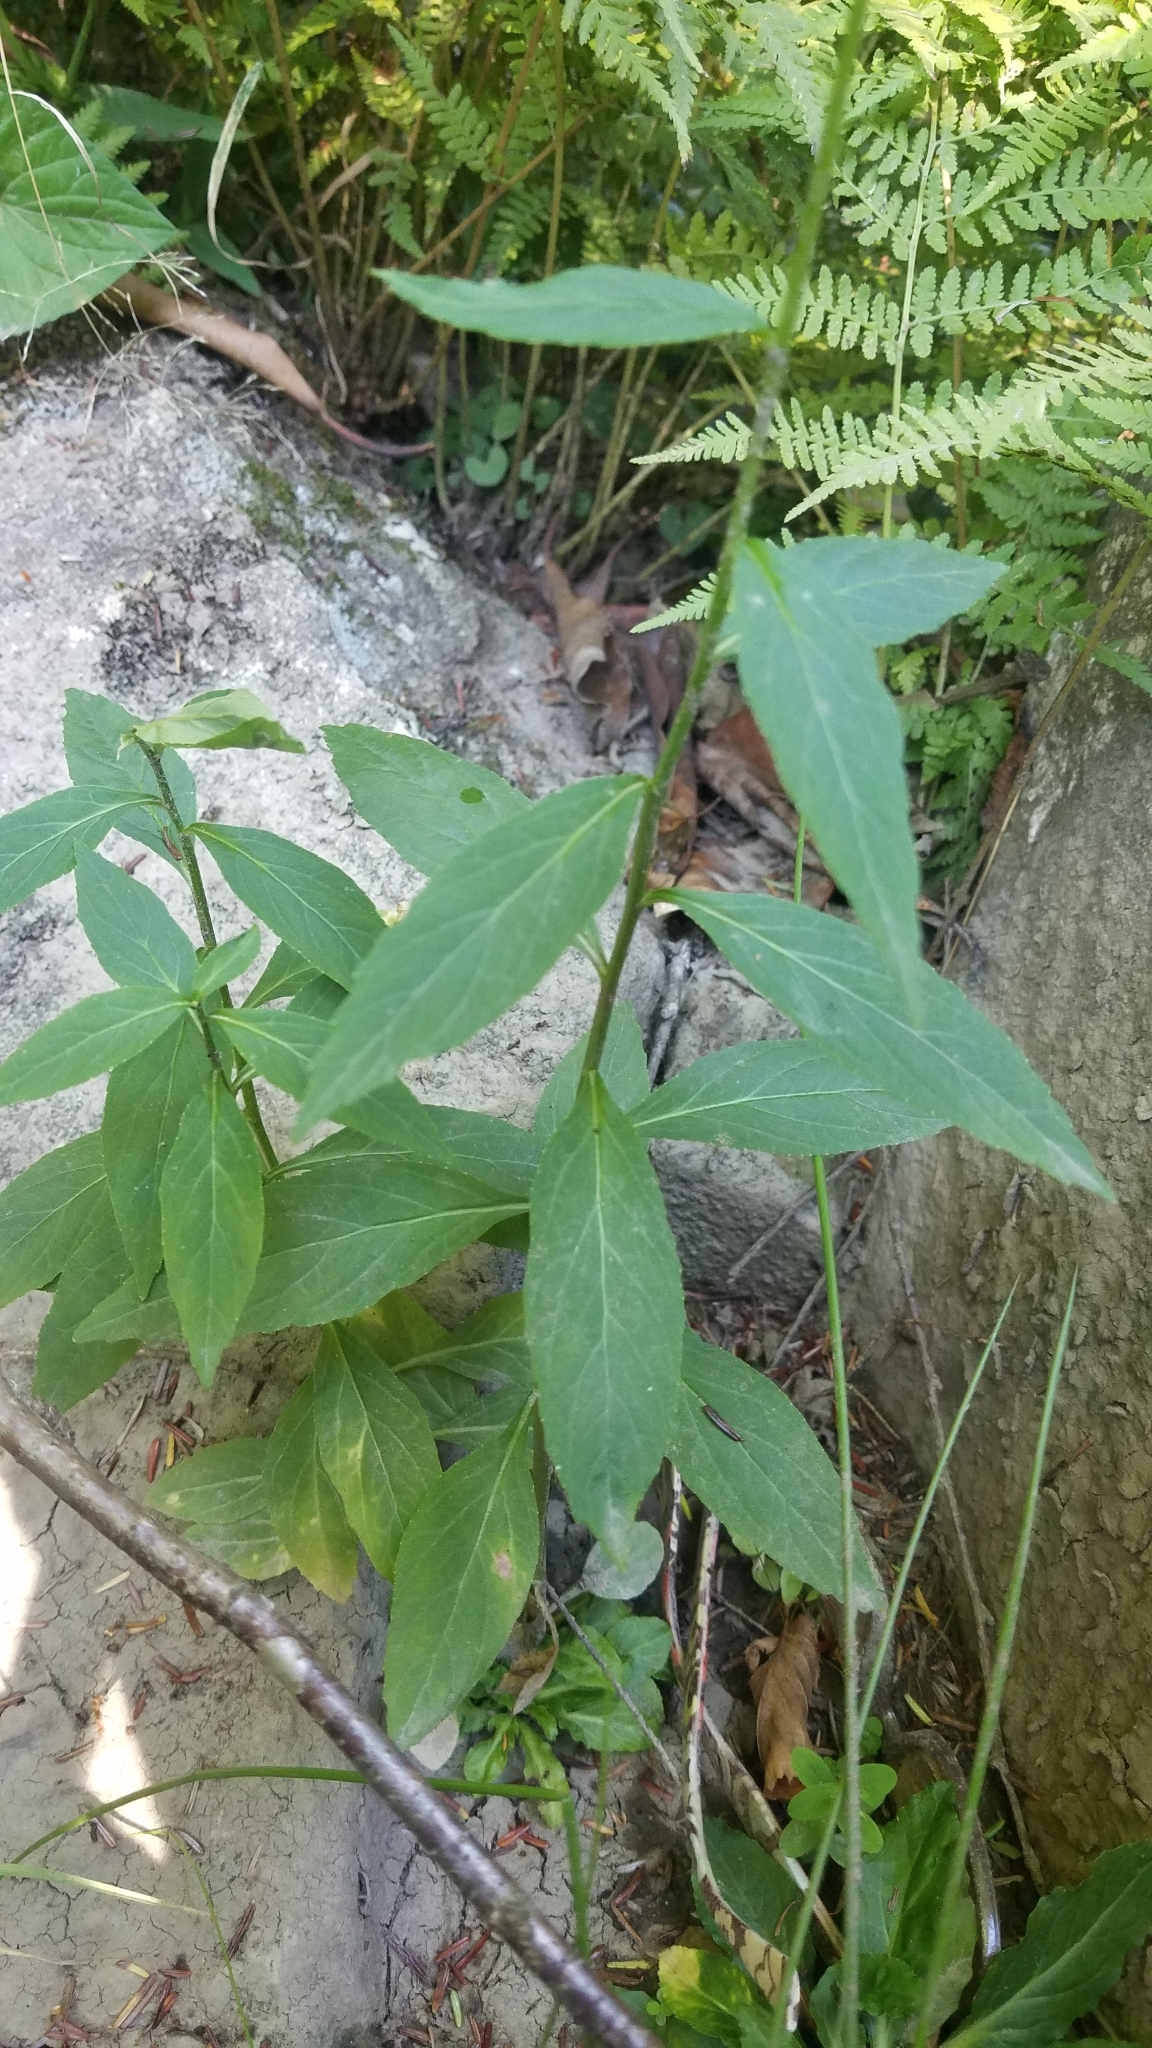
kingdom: Plantae
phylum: Tracheophyta
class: Magnoliopsida
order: Asterales
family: Campanulaceae
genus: Lobelia
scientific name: Lobelia cardinalis
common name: Cardinal flower
